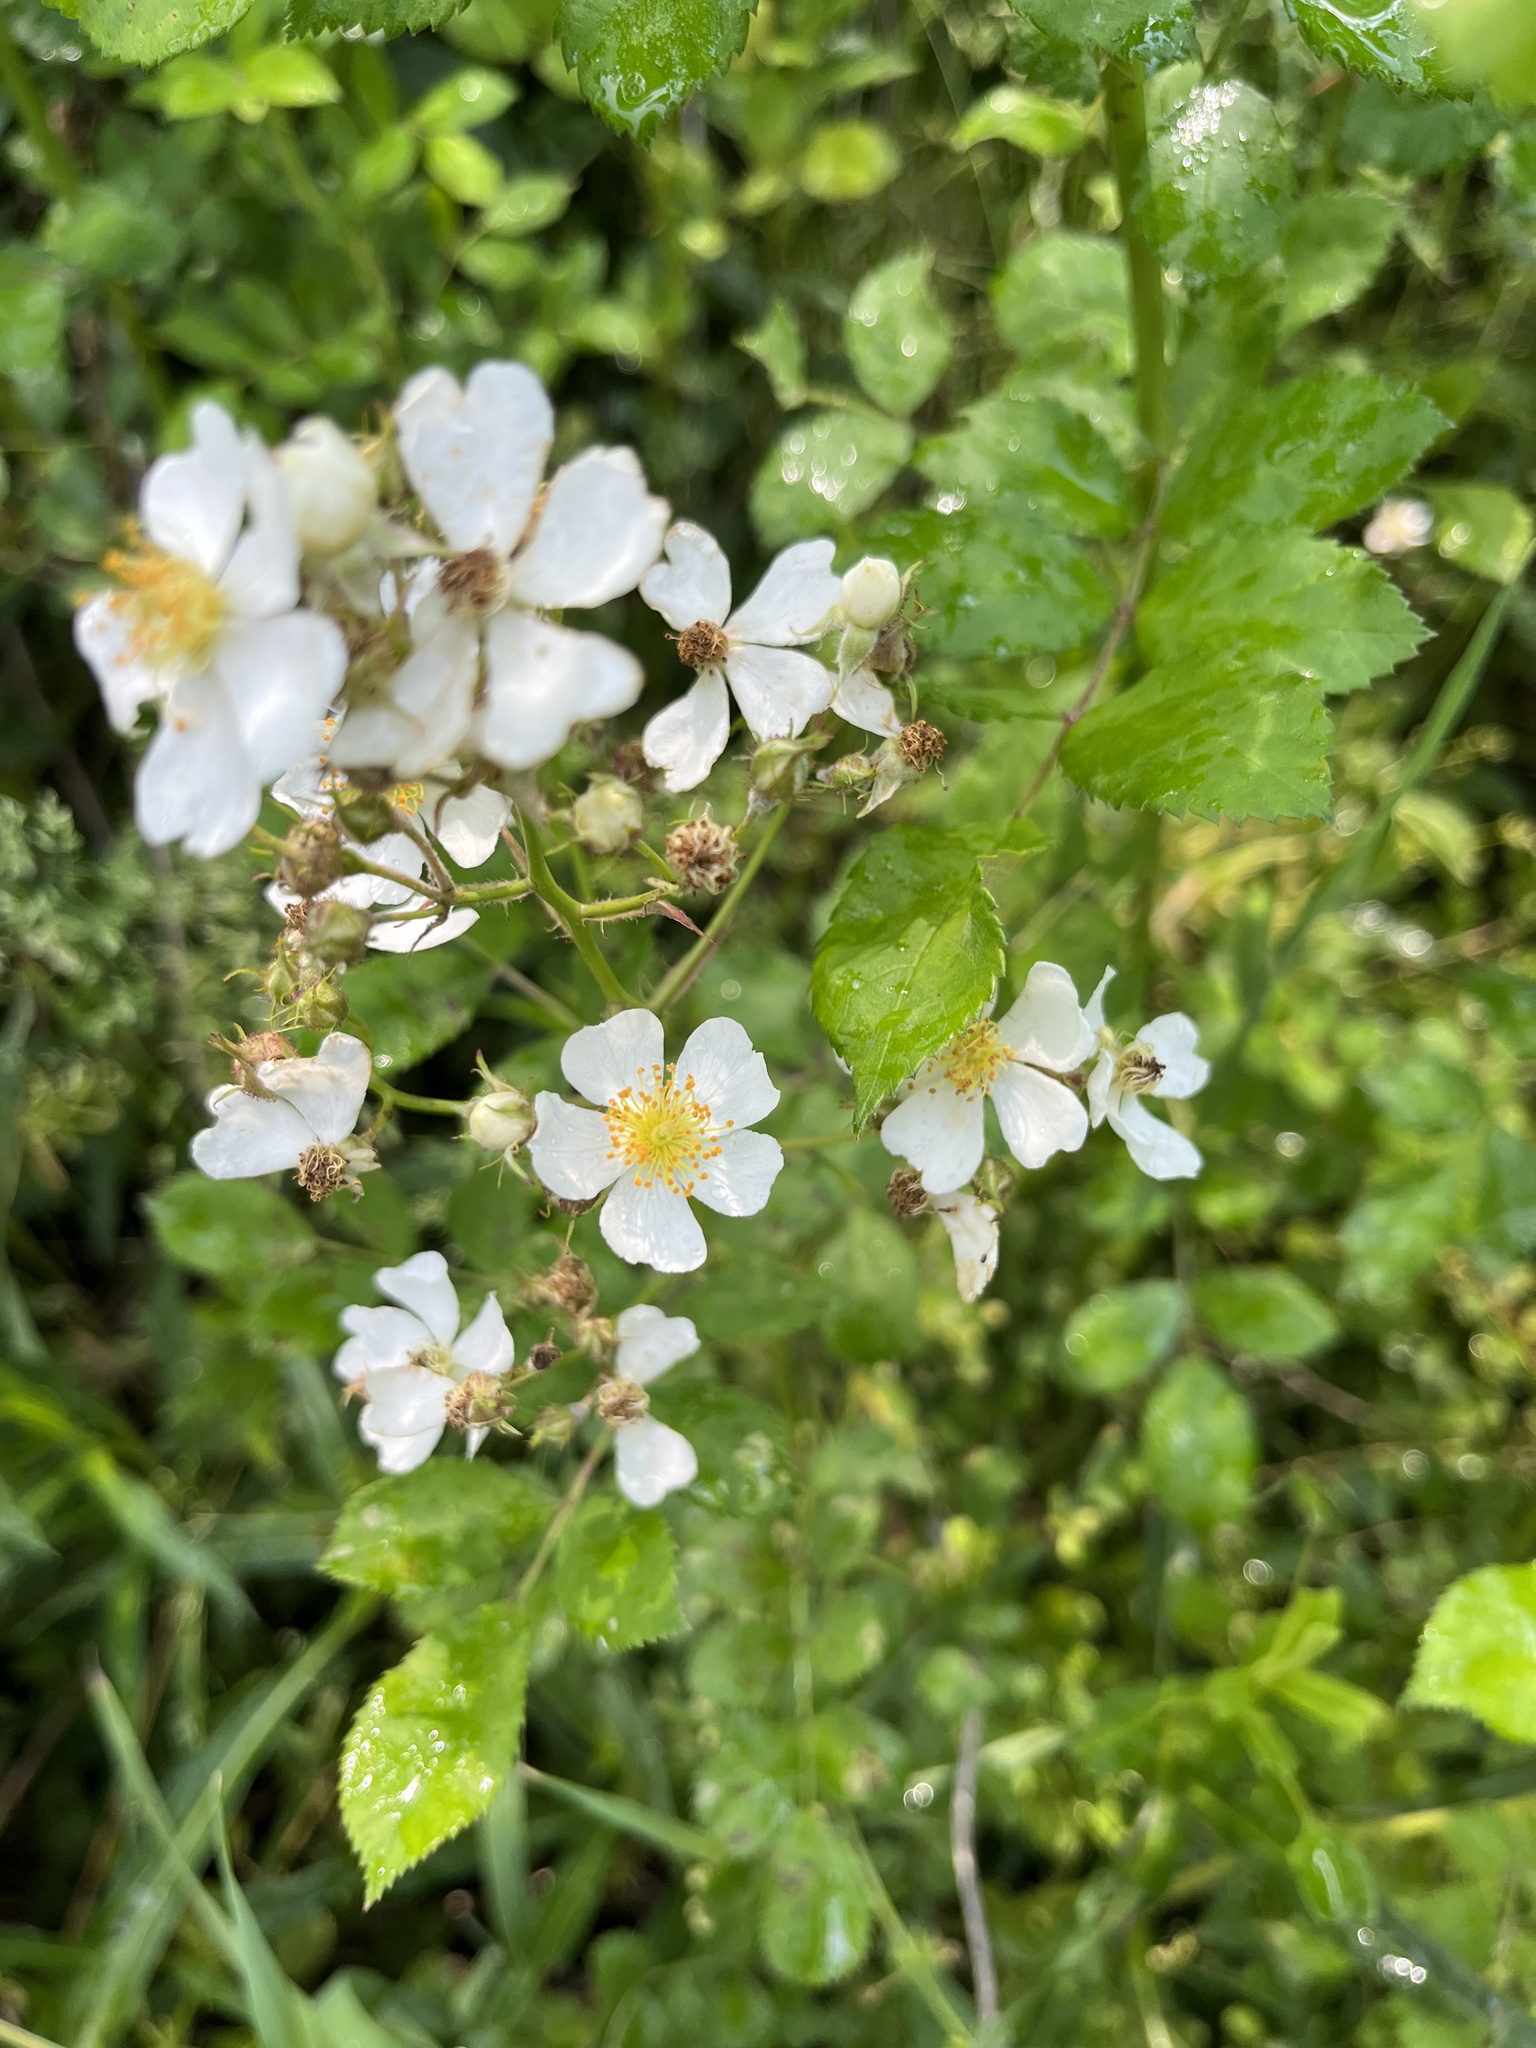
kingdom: Plantae
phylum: Tracheophyta
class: Magnoliopsida
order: Rosales
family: Rosaceae
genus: Rosa
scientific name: Rosa multiflora
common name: Multiflora rose
